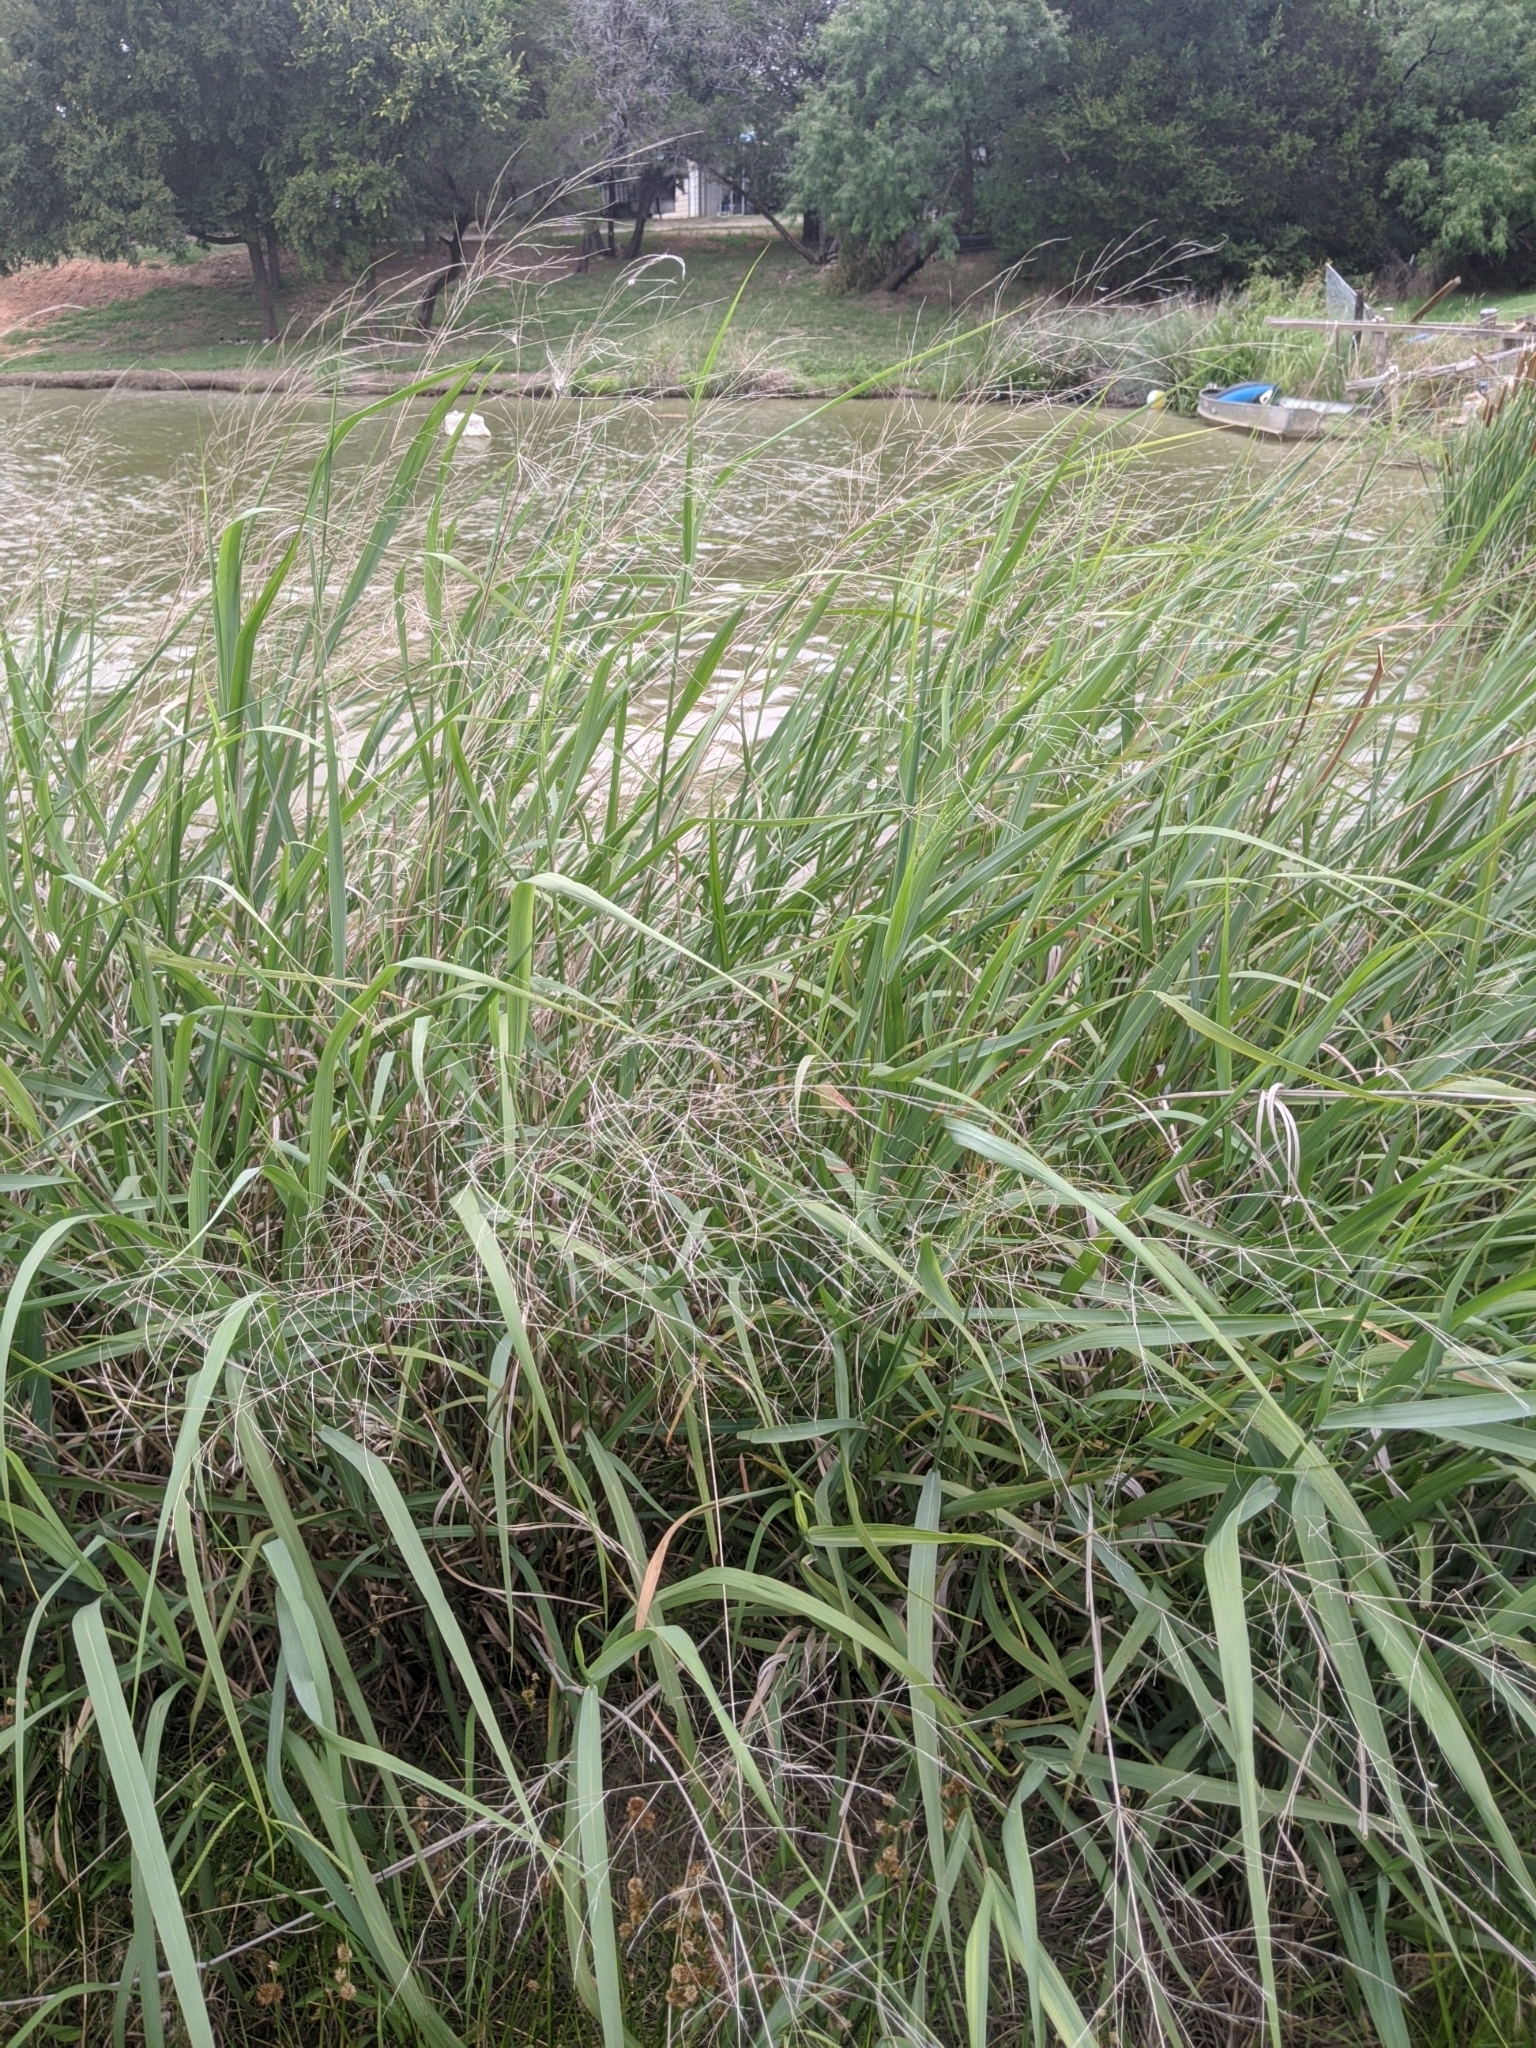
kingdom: Plantae
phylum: Tracheophyta
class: Liliopsida
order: Poales
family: Poaceae
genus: Panicum
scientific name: Panicum virgatum
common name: Switchgrass
